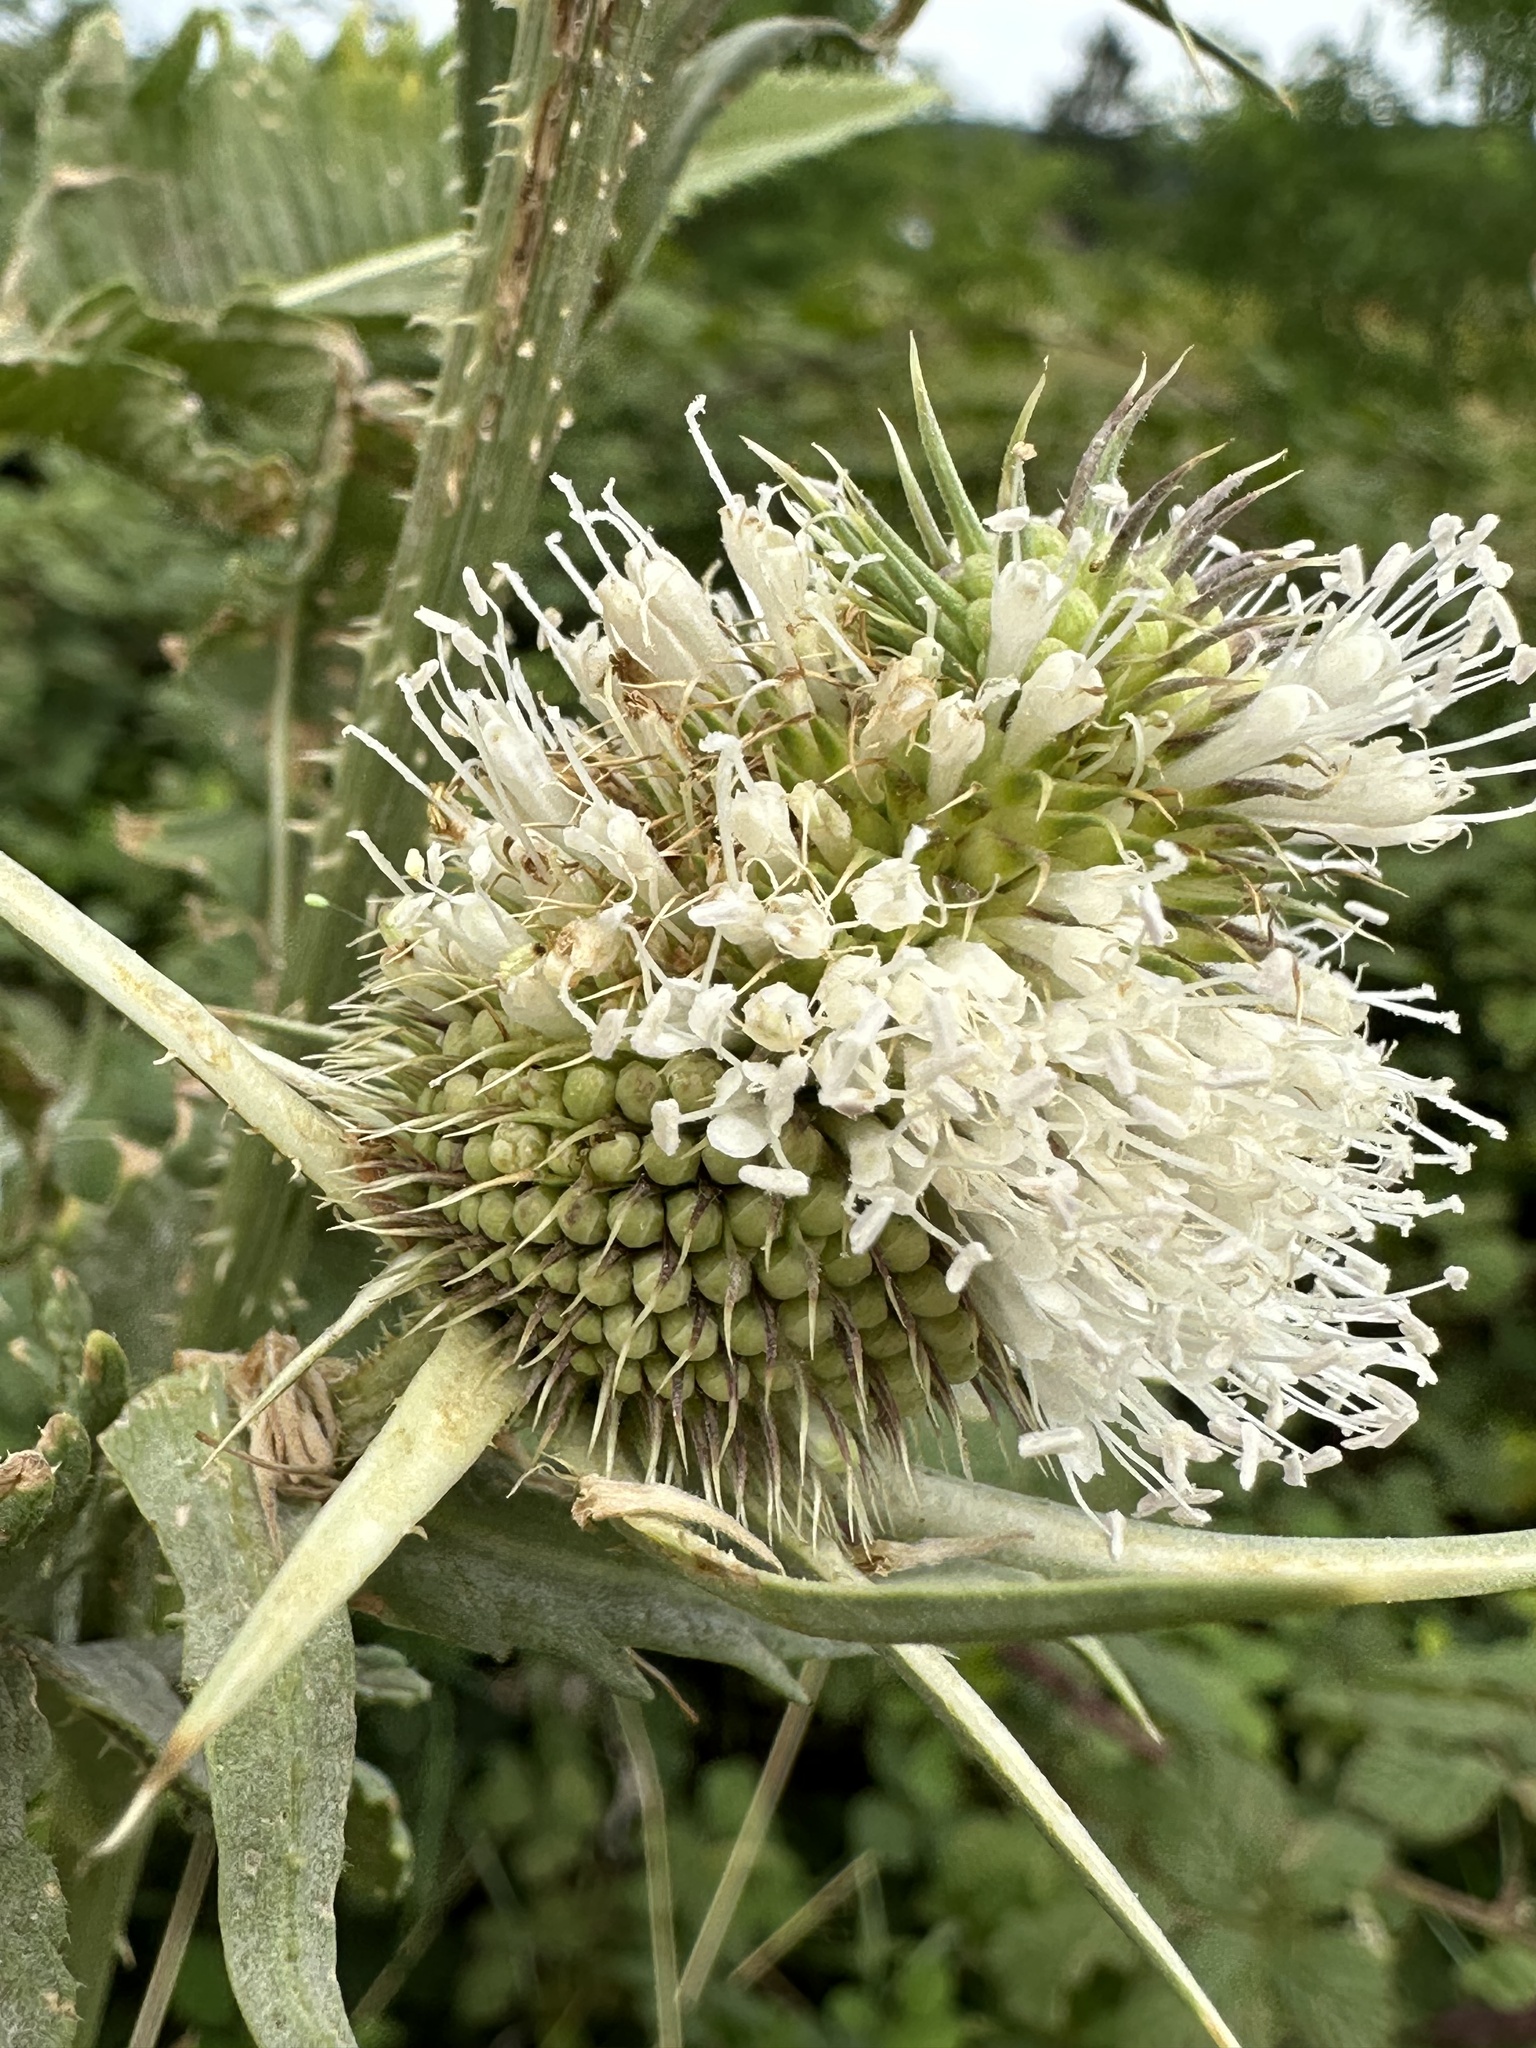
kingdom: Plantae
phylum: Tracheophyta
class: Magnoliopsida
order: Dipsacales
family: Caprifoliaceae
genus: Dipsacus
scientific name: Dipsacus laciniatus
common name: Cut-leaved teasel
